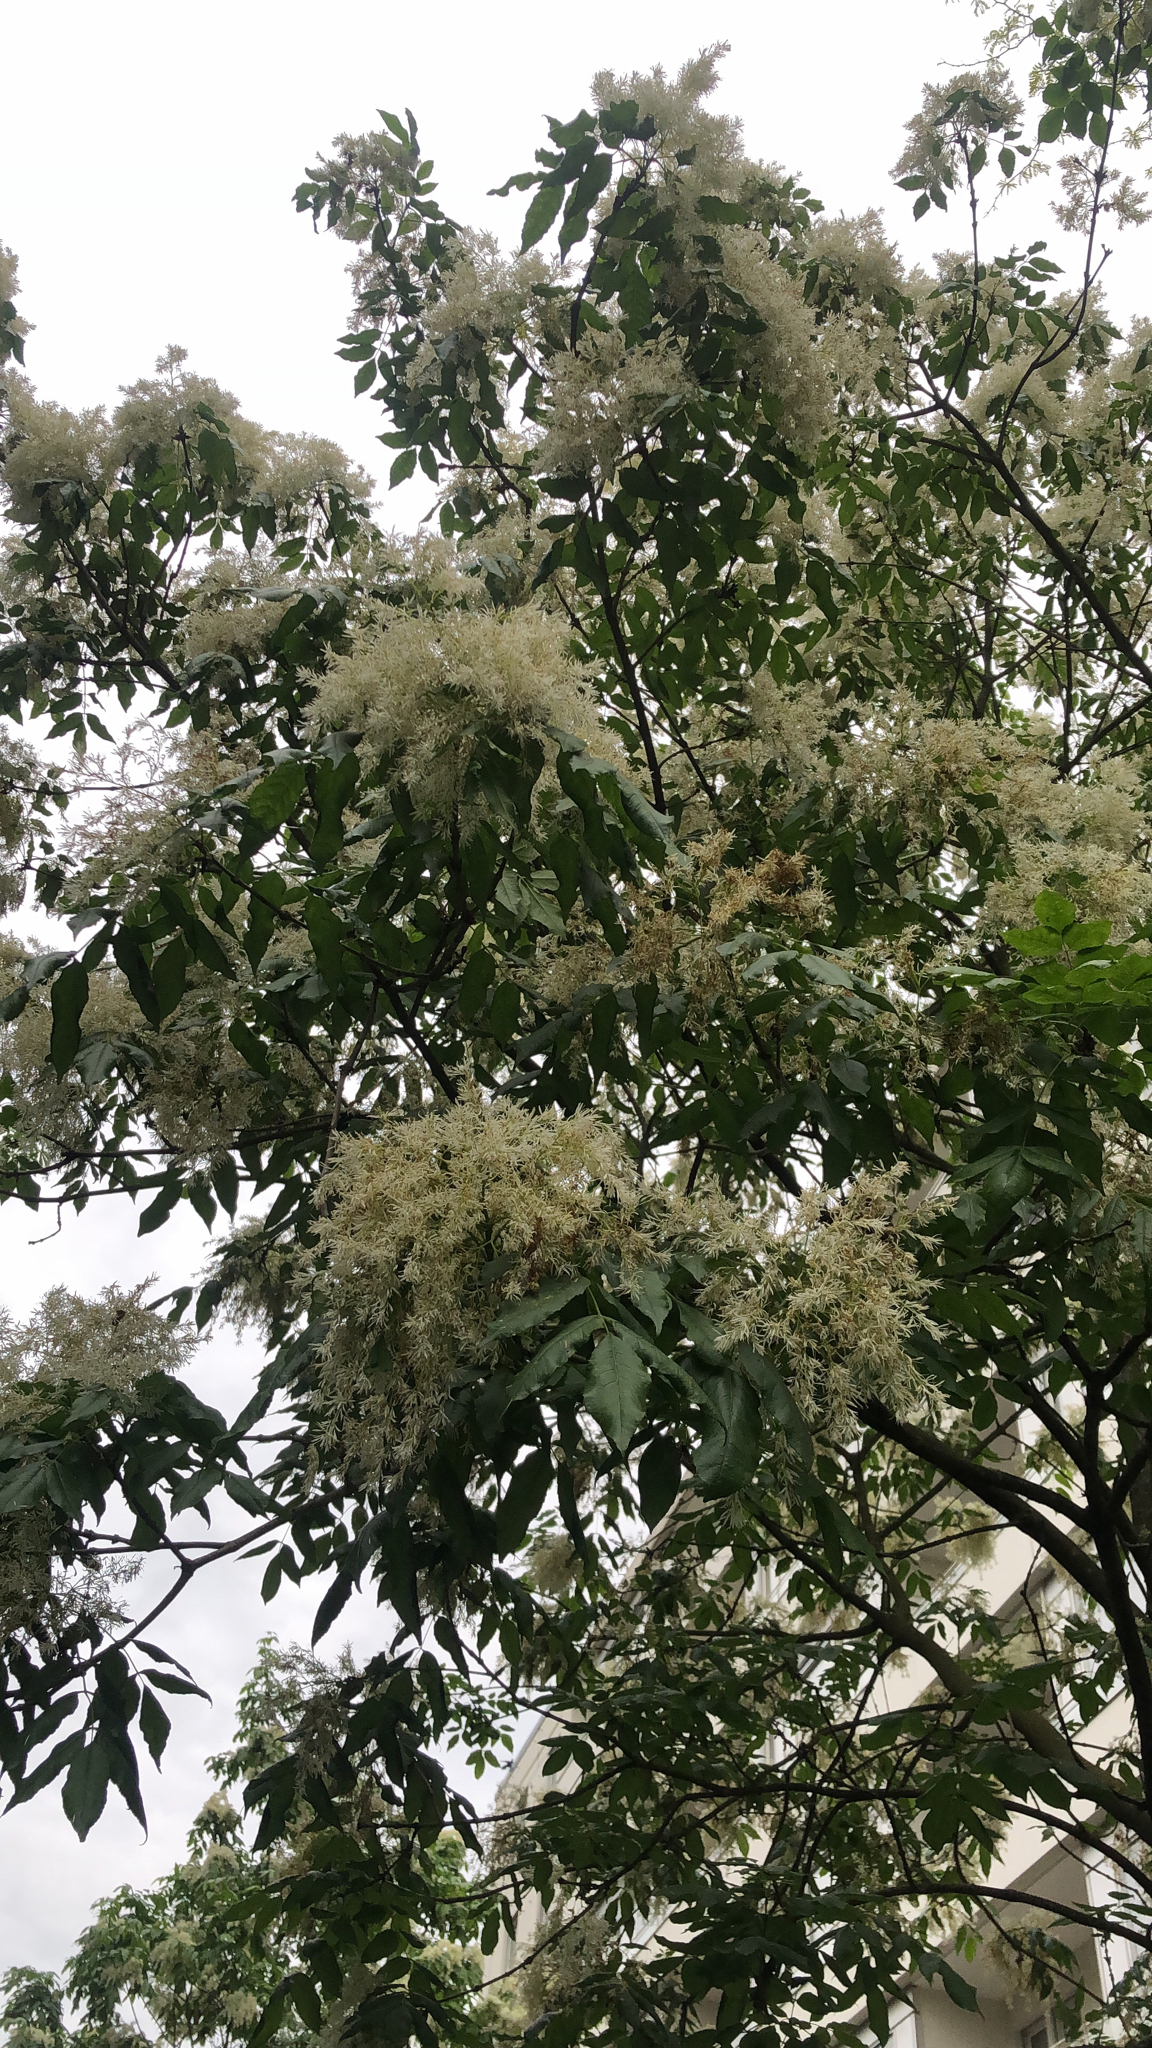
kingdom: Plantae
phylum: Tracheophyta
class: Magnoliopsida
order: Lamiales
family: Oleaceae
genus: Fraxinus
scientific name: Fraxinus ornus
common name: Manna ash
